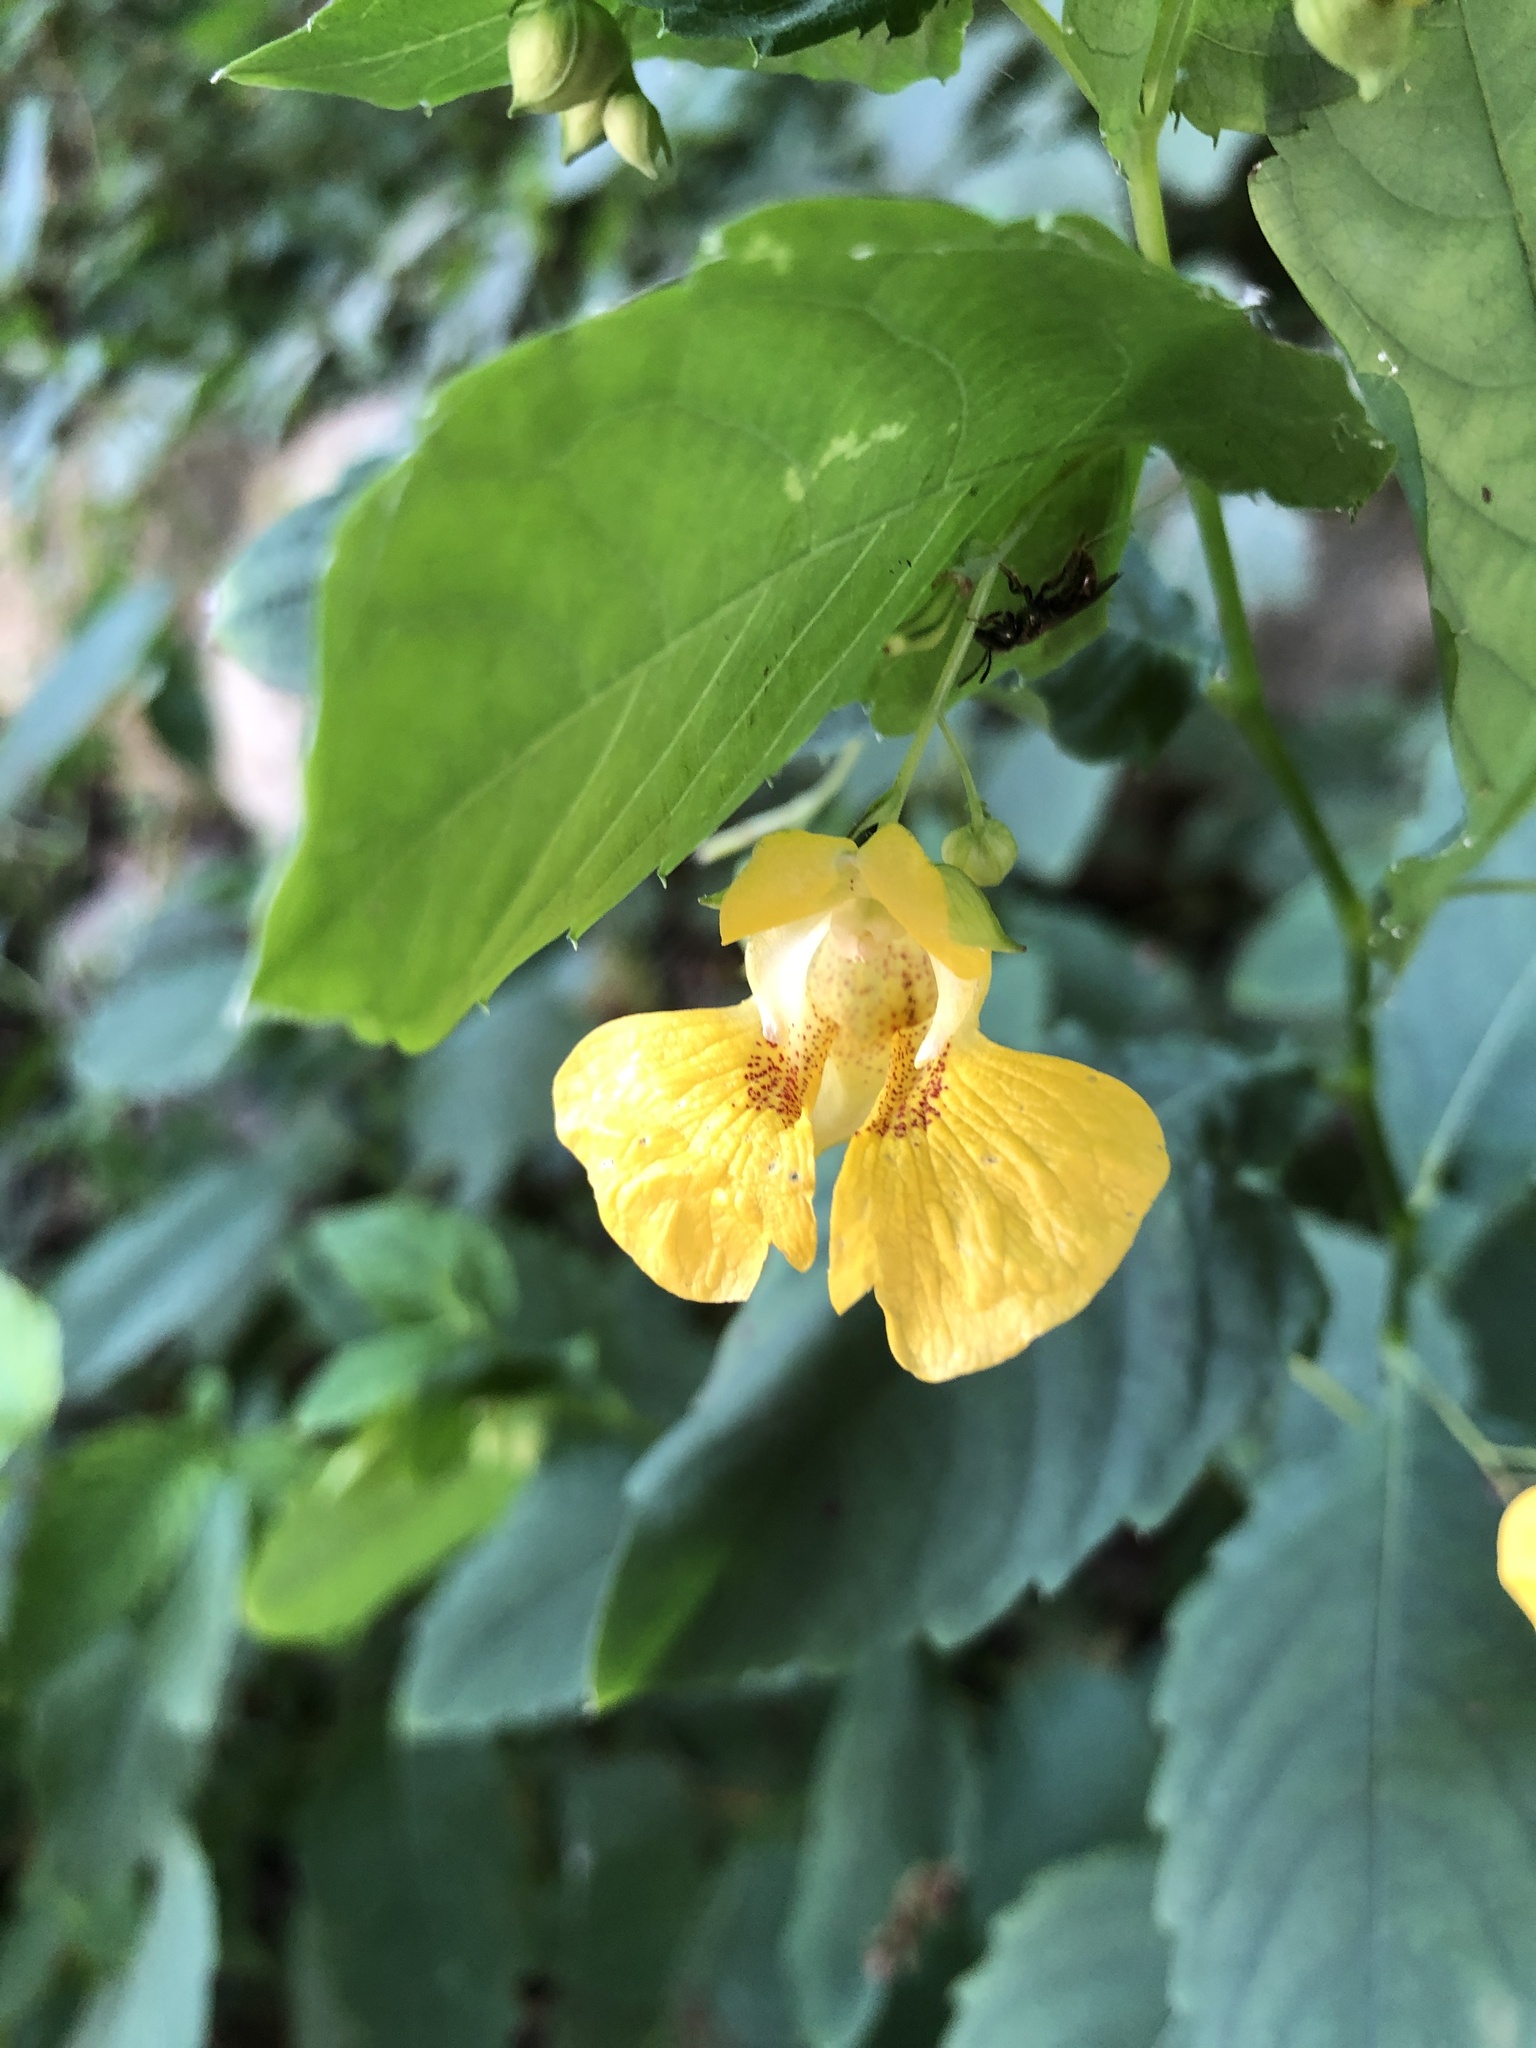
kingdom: Plantae
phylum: Tracheophyta
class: Magnoliopsida
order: Ericales
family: Balsaminaceae
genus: Impatiens
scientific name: Impatiens pallida
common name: Pale snapweed
